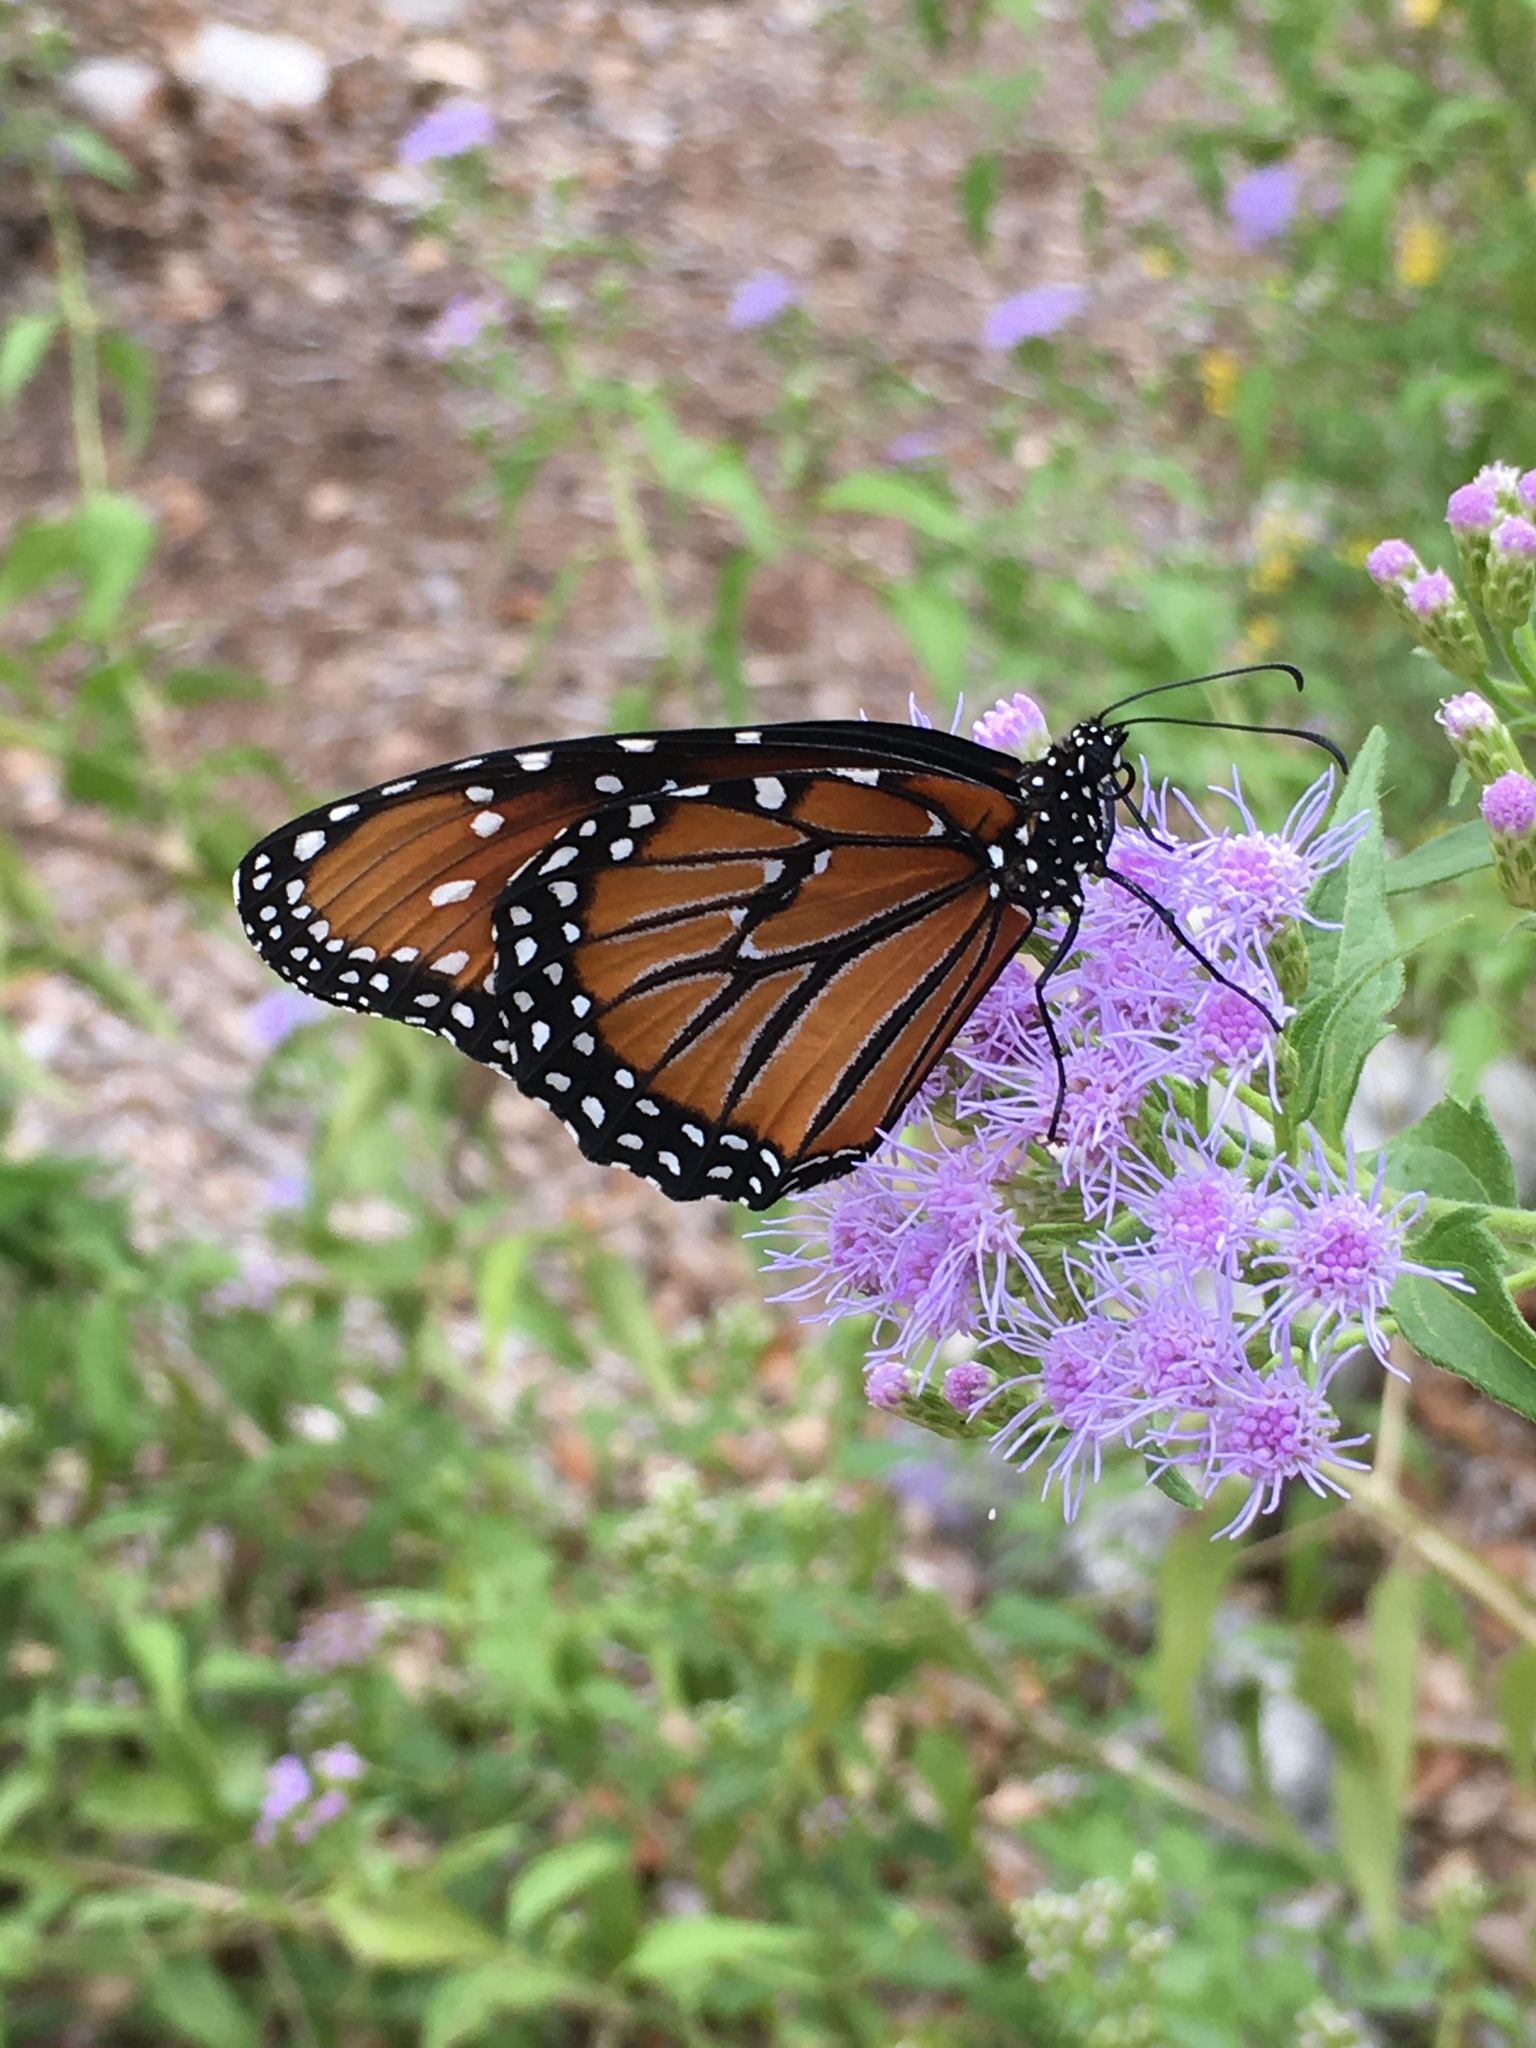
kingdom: Animalia
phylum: Arthropoda
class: Insecta
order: Lepidoptera
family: Nymphalidae
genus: Danaus
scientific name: Danaus gilippus
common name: Queen
